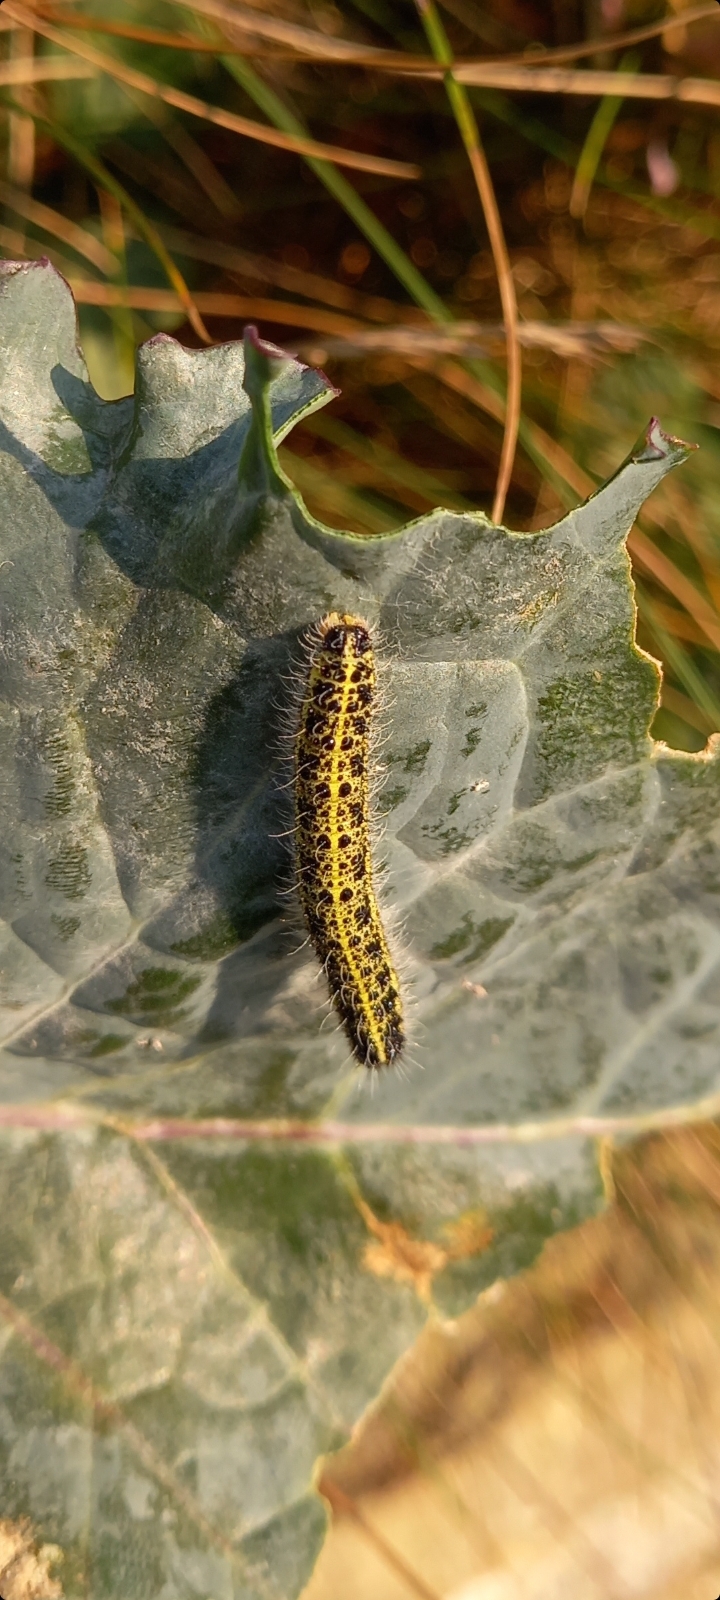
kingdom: Animalia
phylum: Arthropoda
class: Insecta
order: Lepidoptera
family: Pieridae
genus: Pieris
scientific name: Pieris brassicae
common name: Large white
